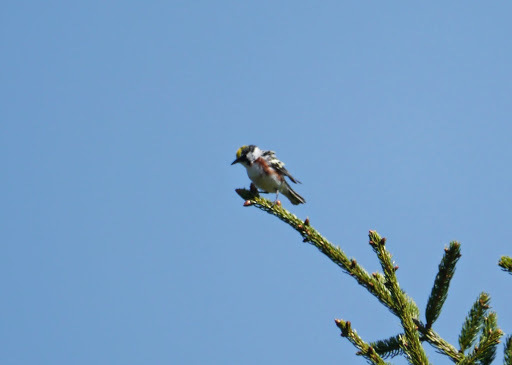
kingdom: Animalia
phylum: Chordata
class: Aves
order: Passeriformes
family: Parulidae
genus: Setophaga
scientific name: Setophaga pensylvanica
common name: Chestnut-sided warbler
